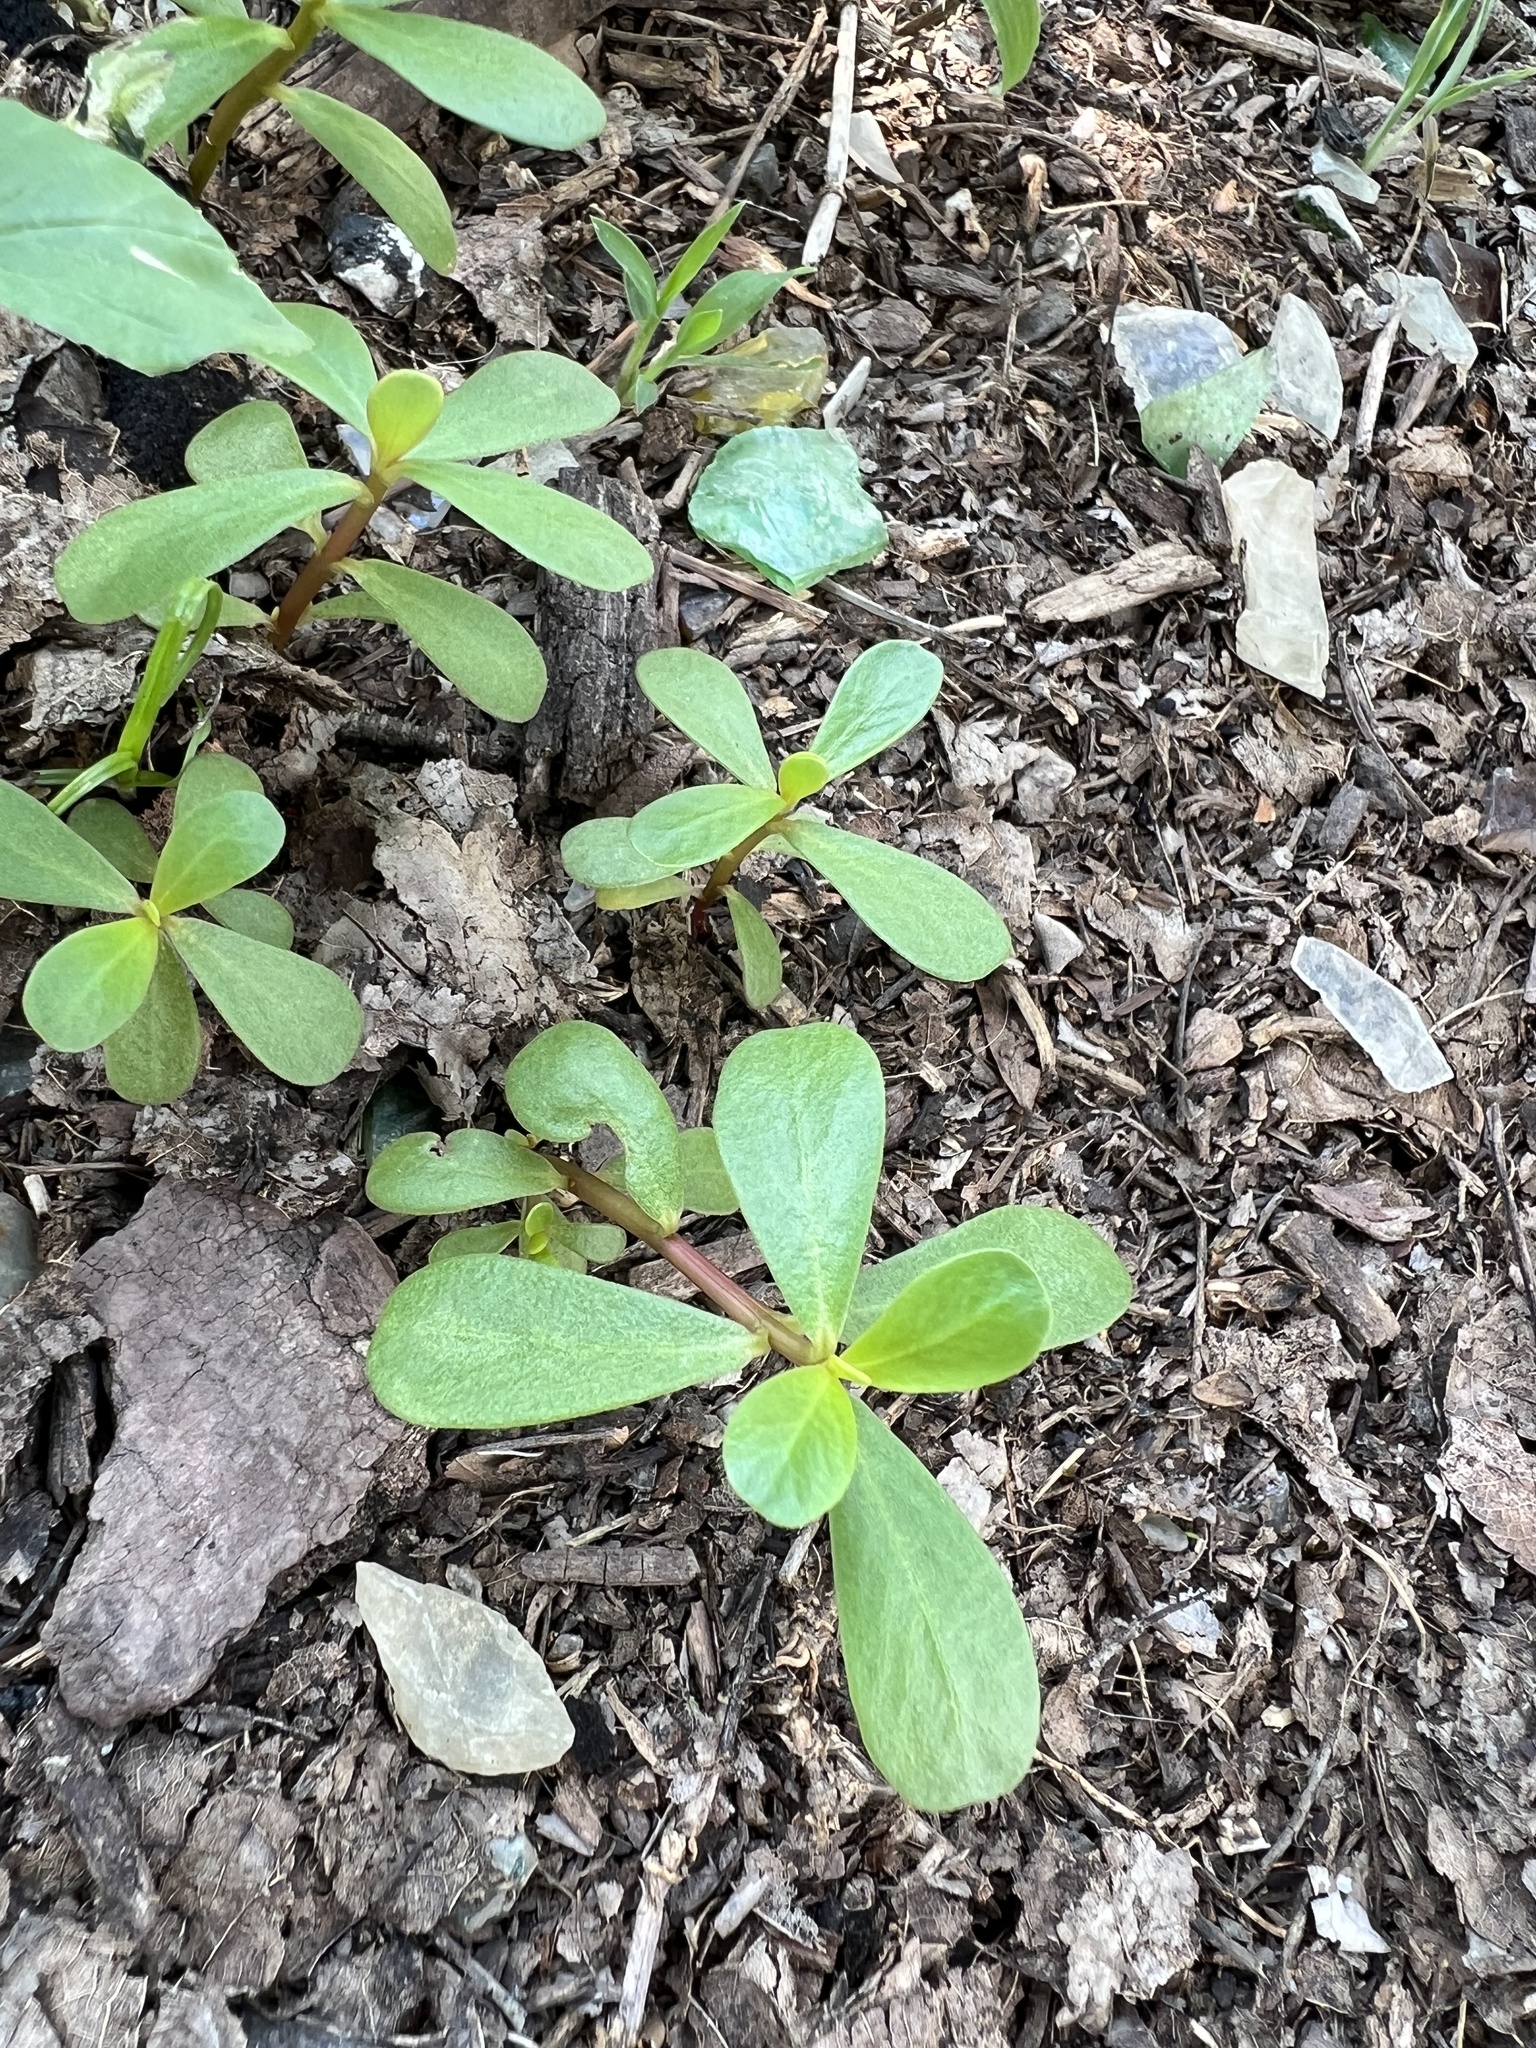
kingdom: Plantae
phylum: Tracheophyta
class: Magnoliopsida
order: Caryophyllales
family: Portulacaceae
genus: Portulaca
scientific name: Portulaca oleracea
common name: Common purslane
